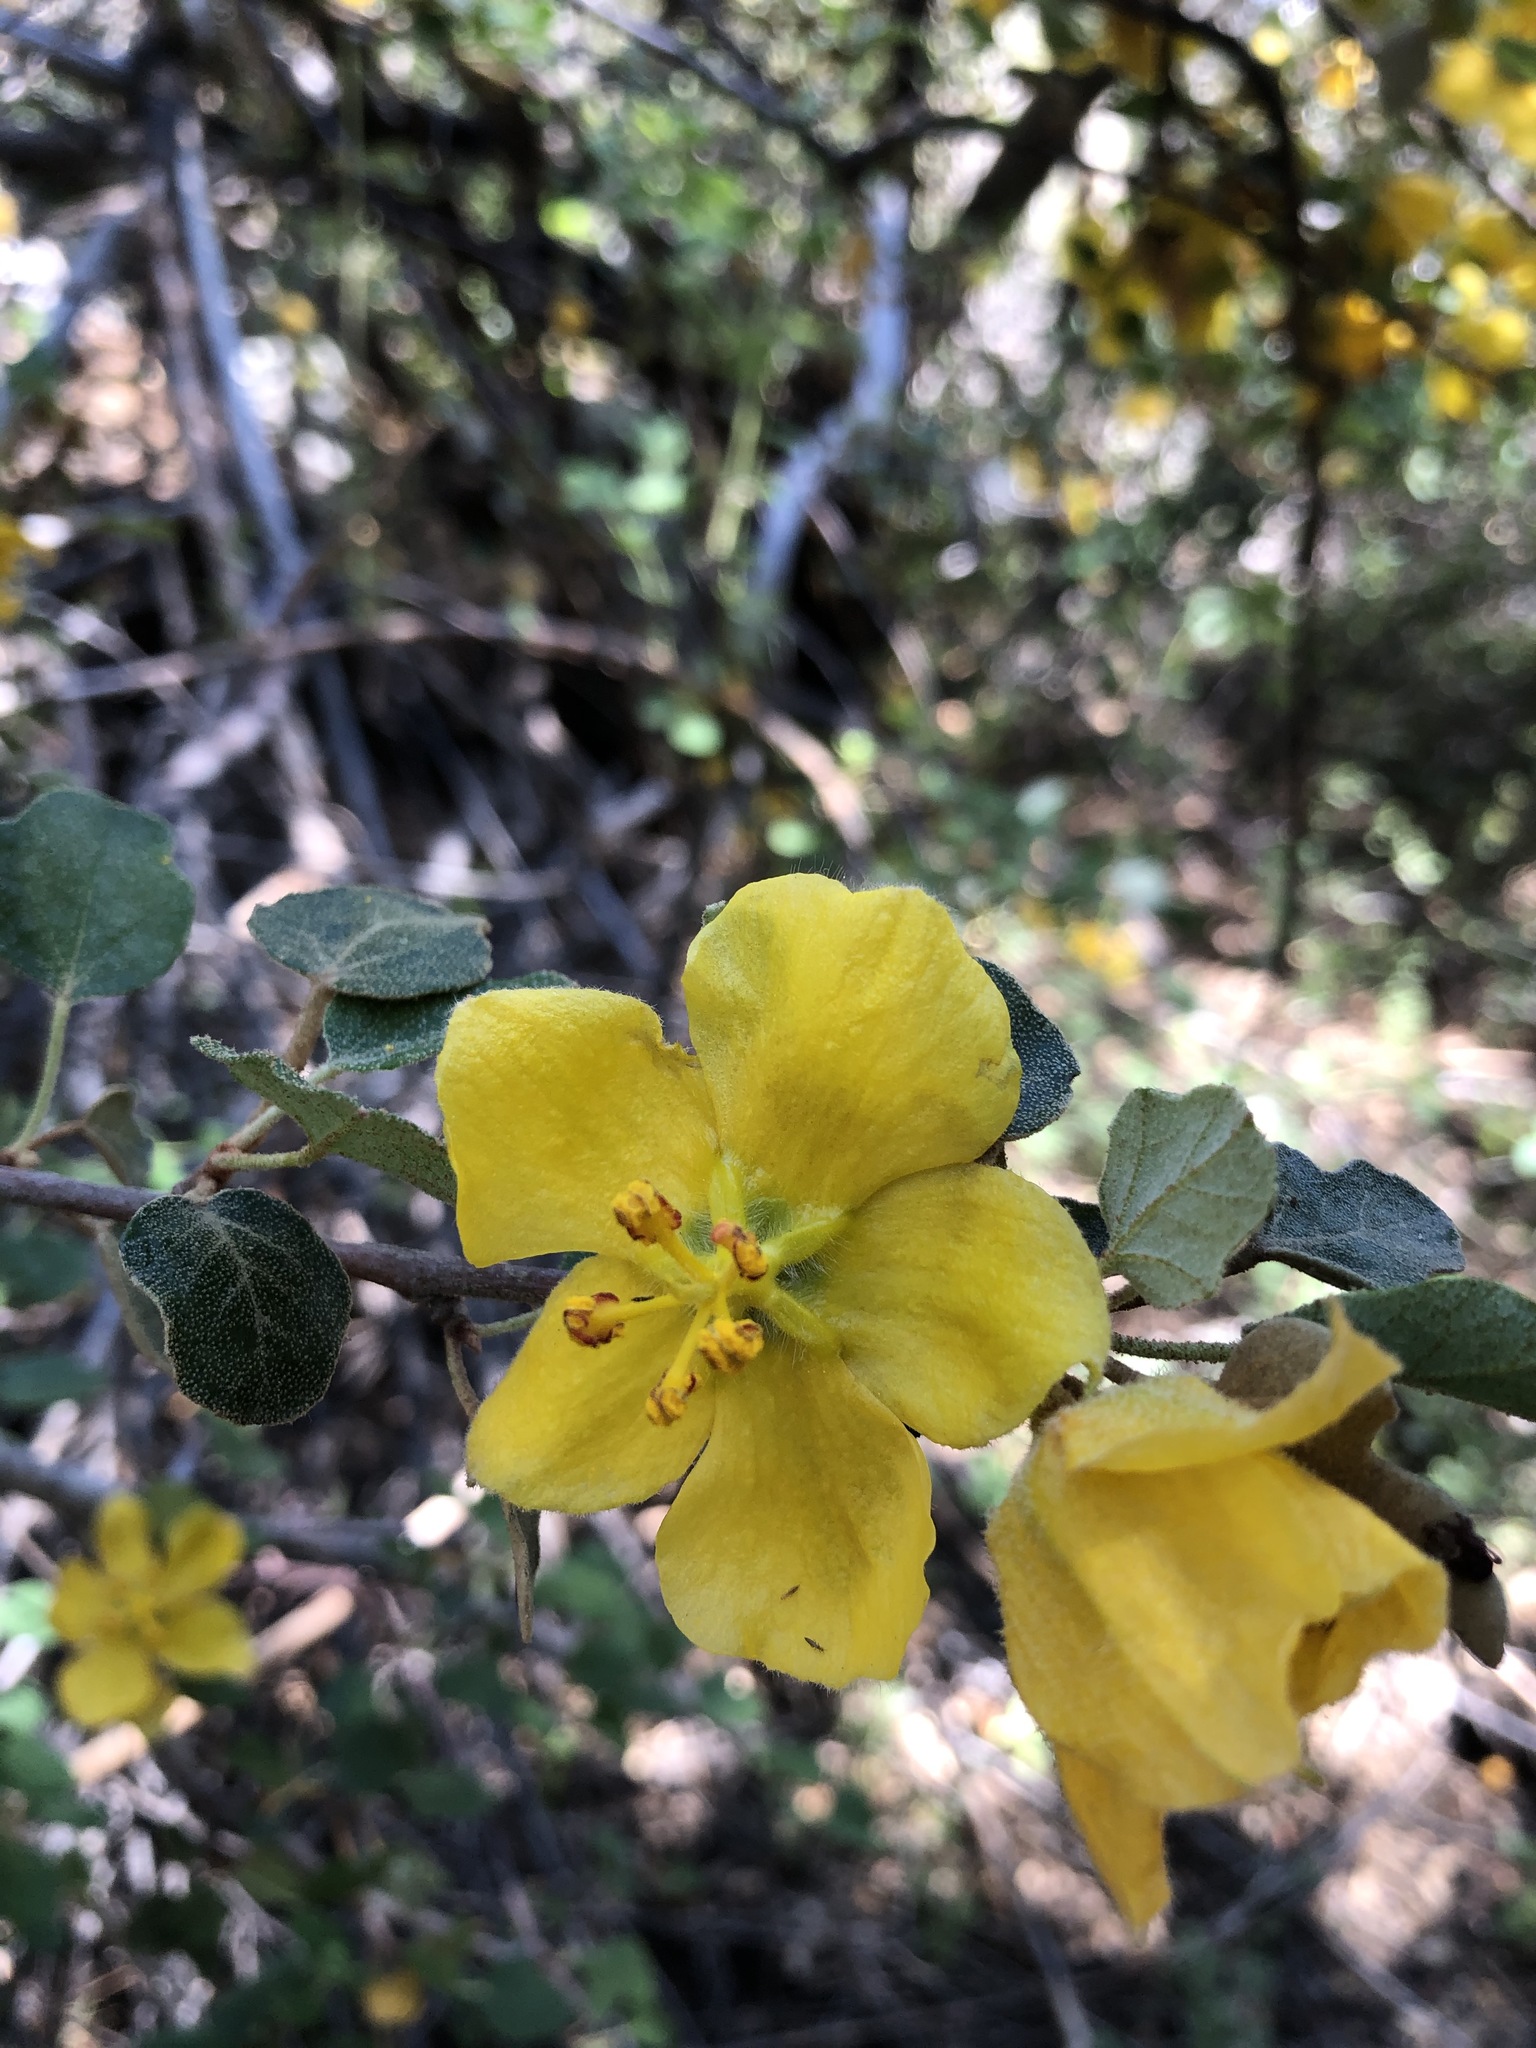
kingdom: Plantae
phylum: Tracheophyta
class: Magnoliopsida
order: Malvales
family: Malvaceae
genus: Fremontodendron
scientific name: Fremontodendron californicum
